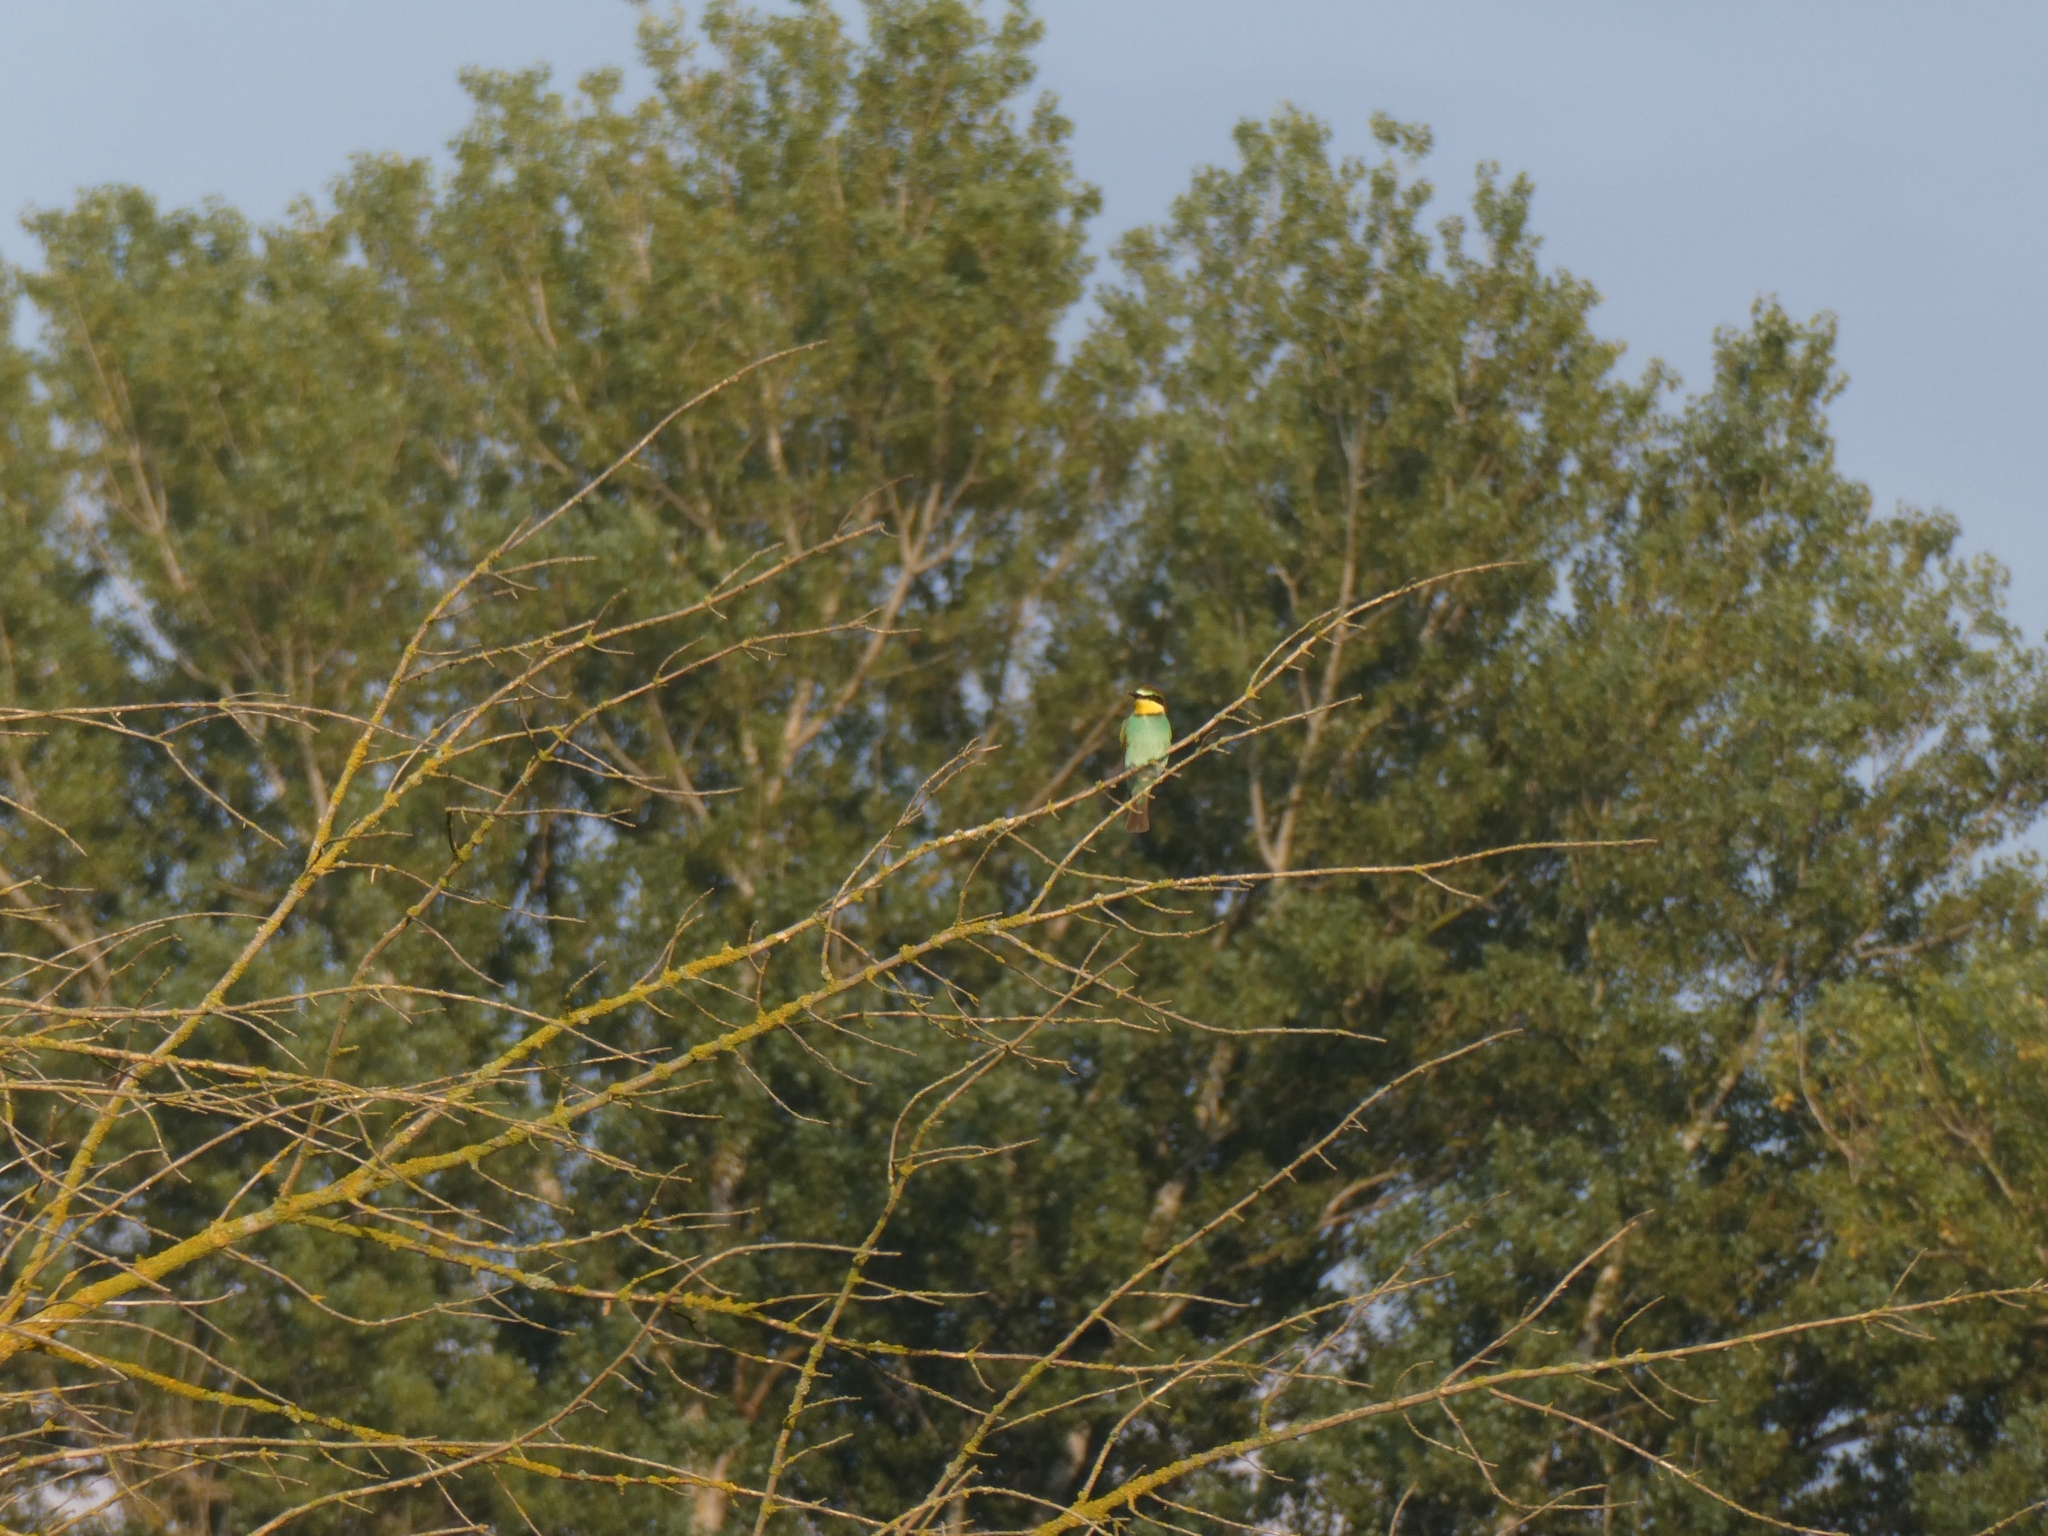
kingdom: Animalia
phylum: Chordata
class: Aves
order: Coraciiformes
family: Meropidae
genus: Merops
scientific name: Merops apiaster
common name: European bee-eater
